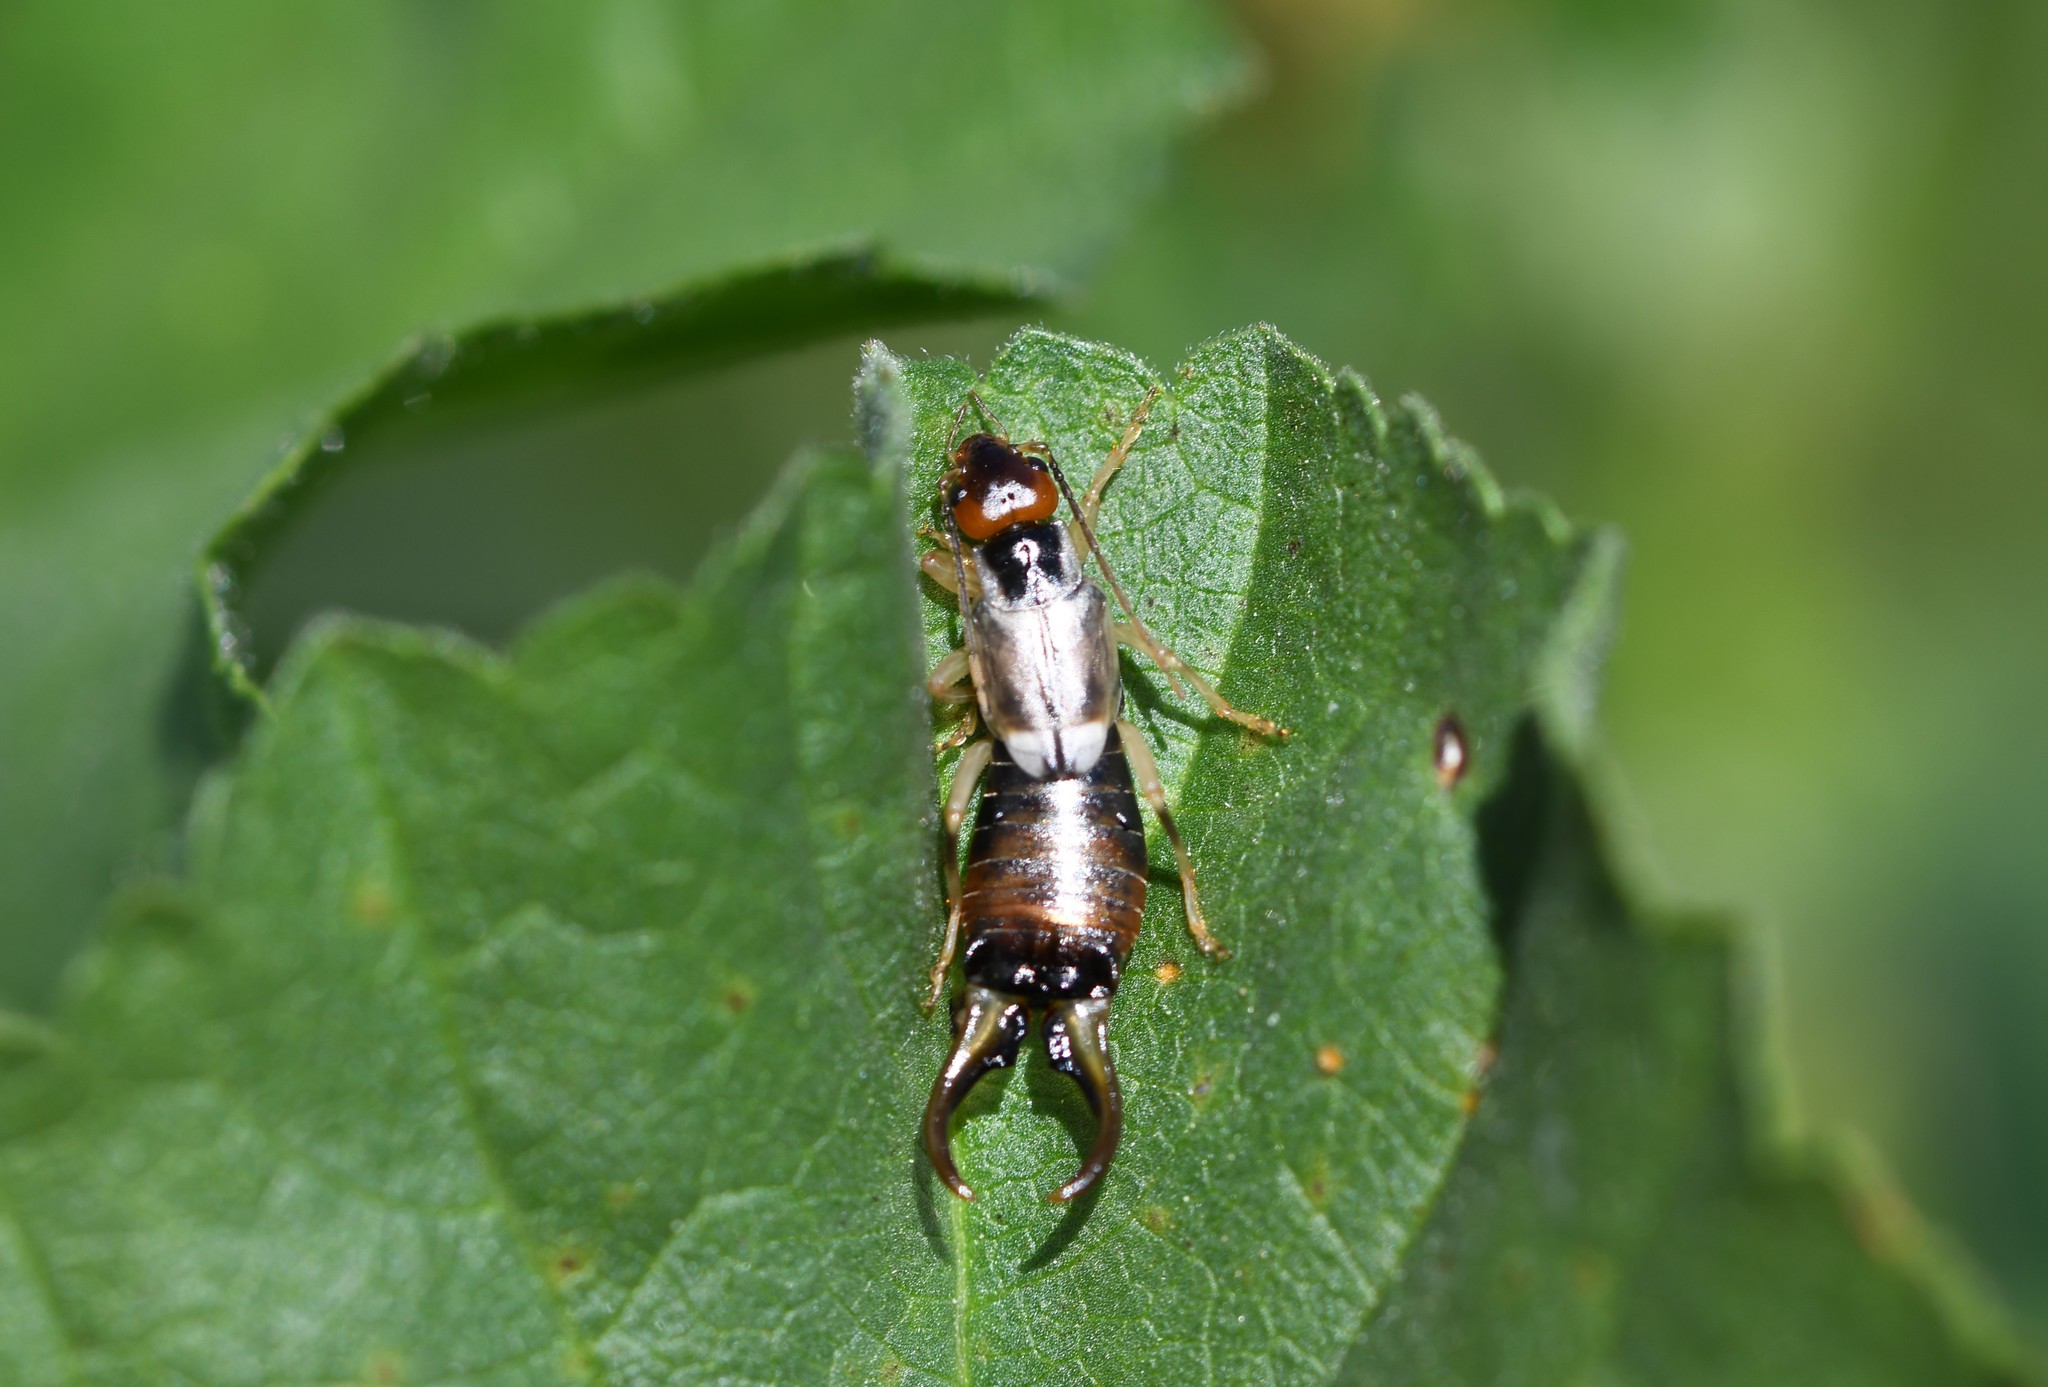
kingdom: Animalia
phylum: Arthropoda
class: Insecta
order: Dermaptera
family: Forficulidae
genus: Forficula
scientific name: Forficula
